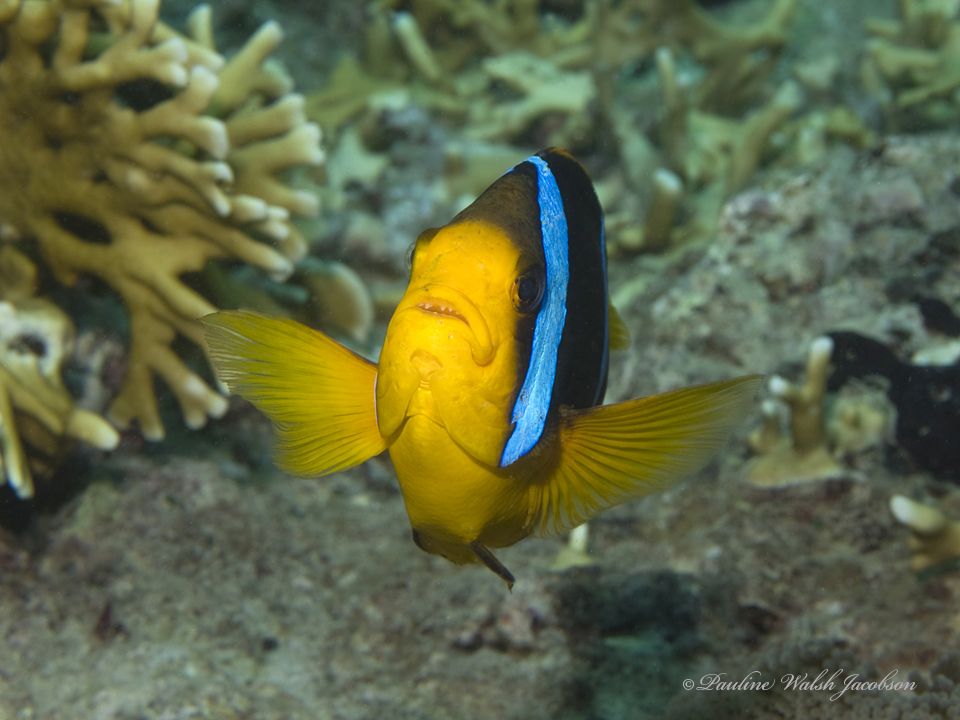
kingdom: Animalia
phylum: Chordata
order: Perciformes
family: Pomacentridae
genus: Amphiprion
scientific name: Amphiprion chrysopterus
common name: Orange-fin anemonefish
